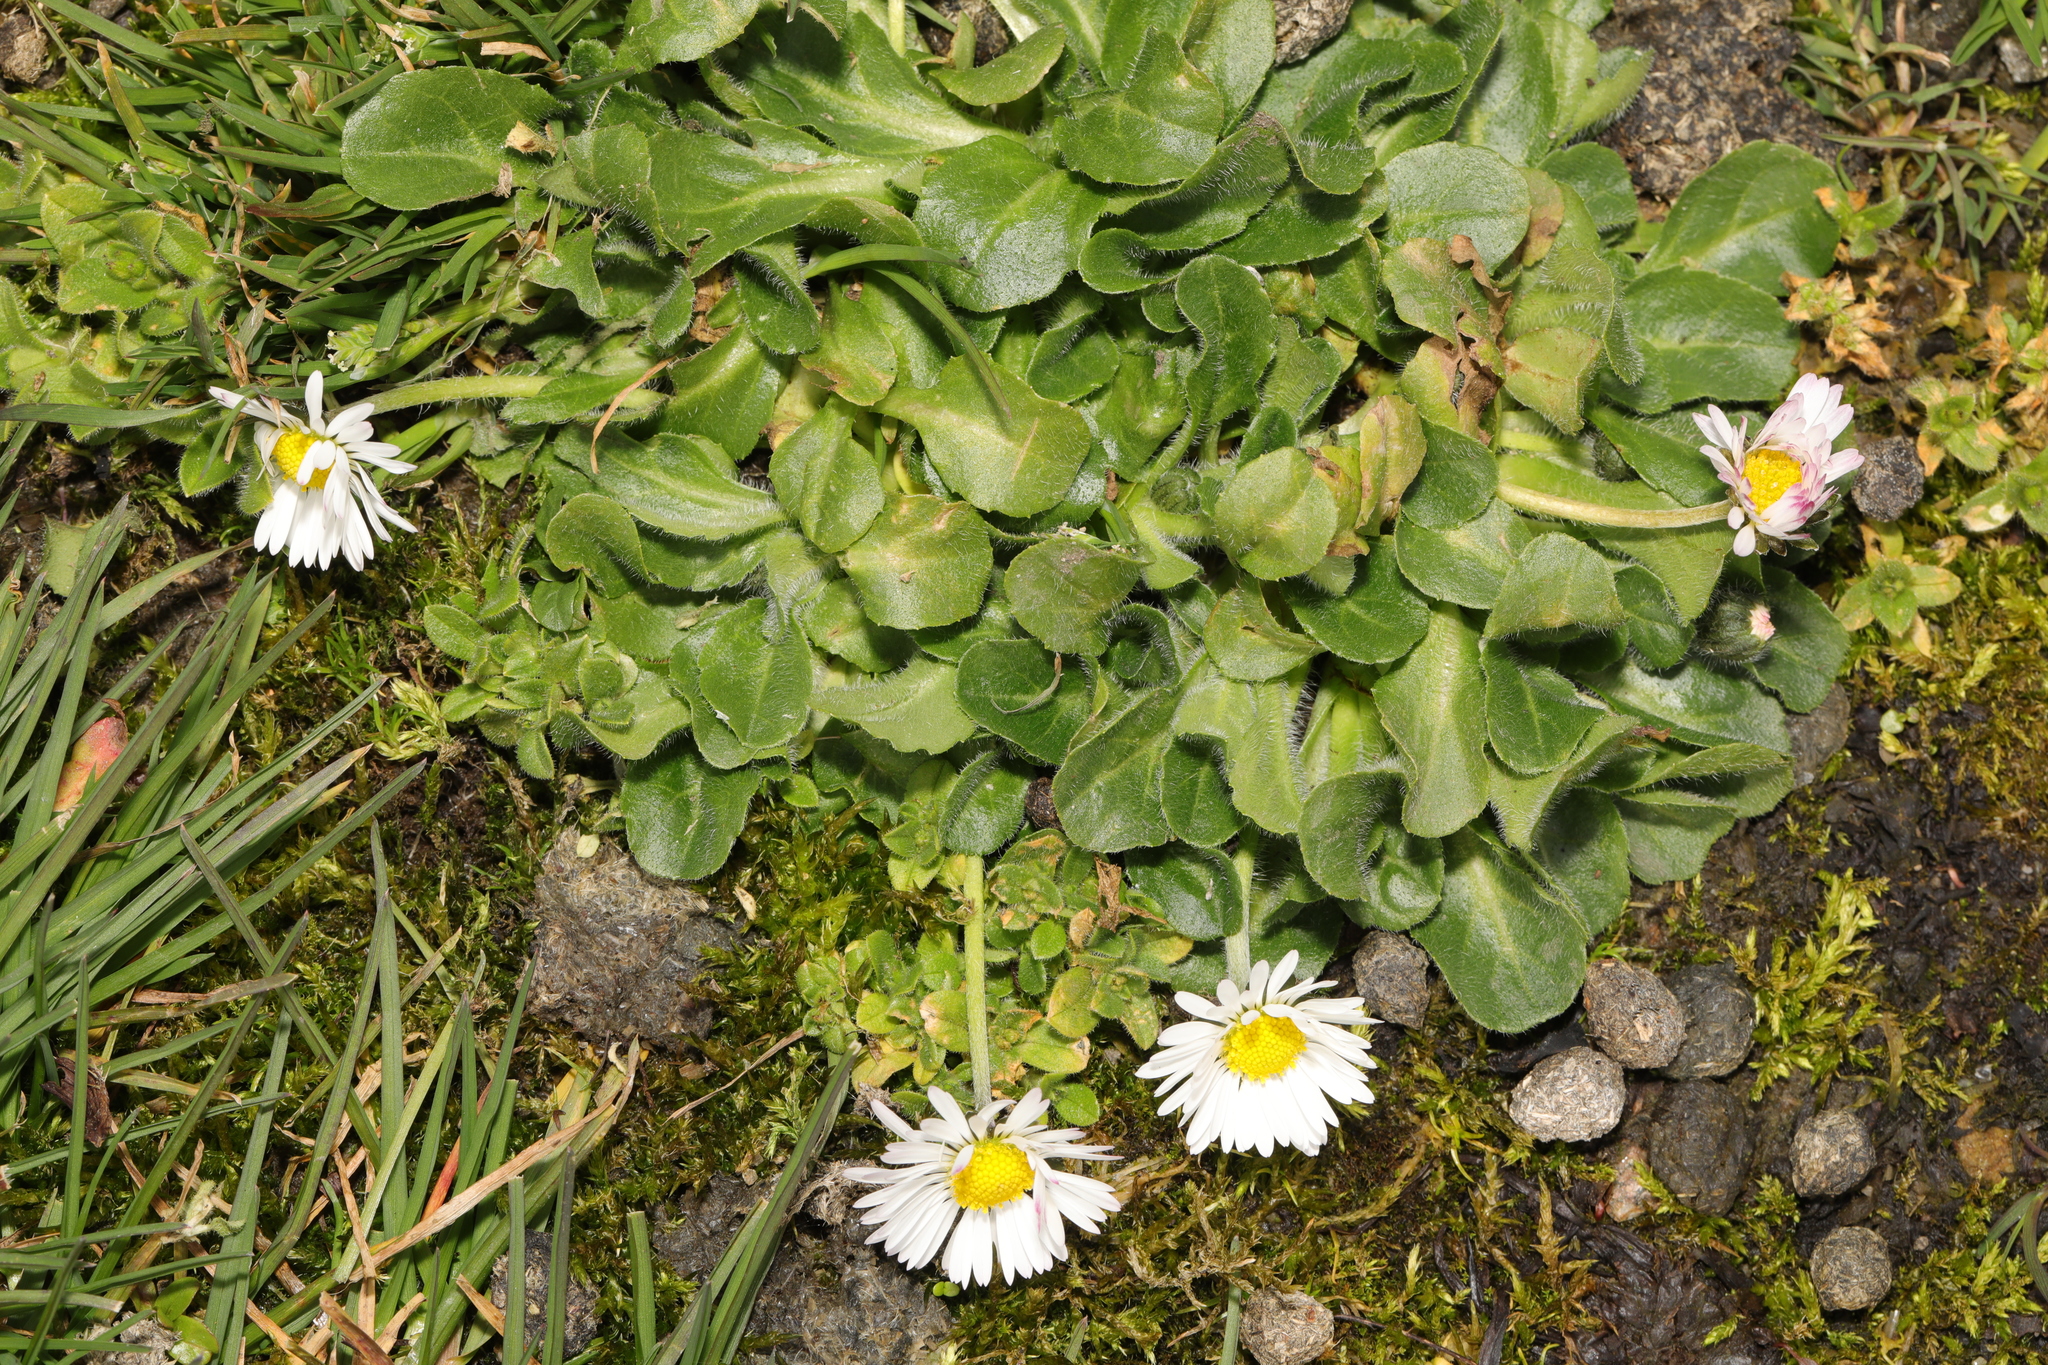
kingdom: Plantae
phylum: Tracheophyta
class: Magnoliopsida
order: Asterales
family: Asteraceae
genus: Bellis
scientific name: Bellis perennis
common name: Lawndaisy
